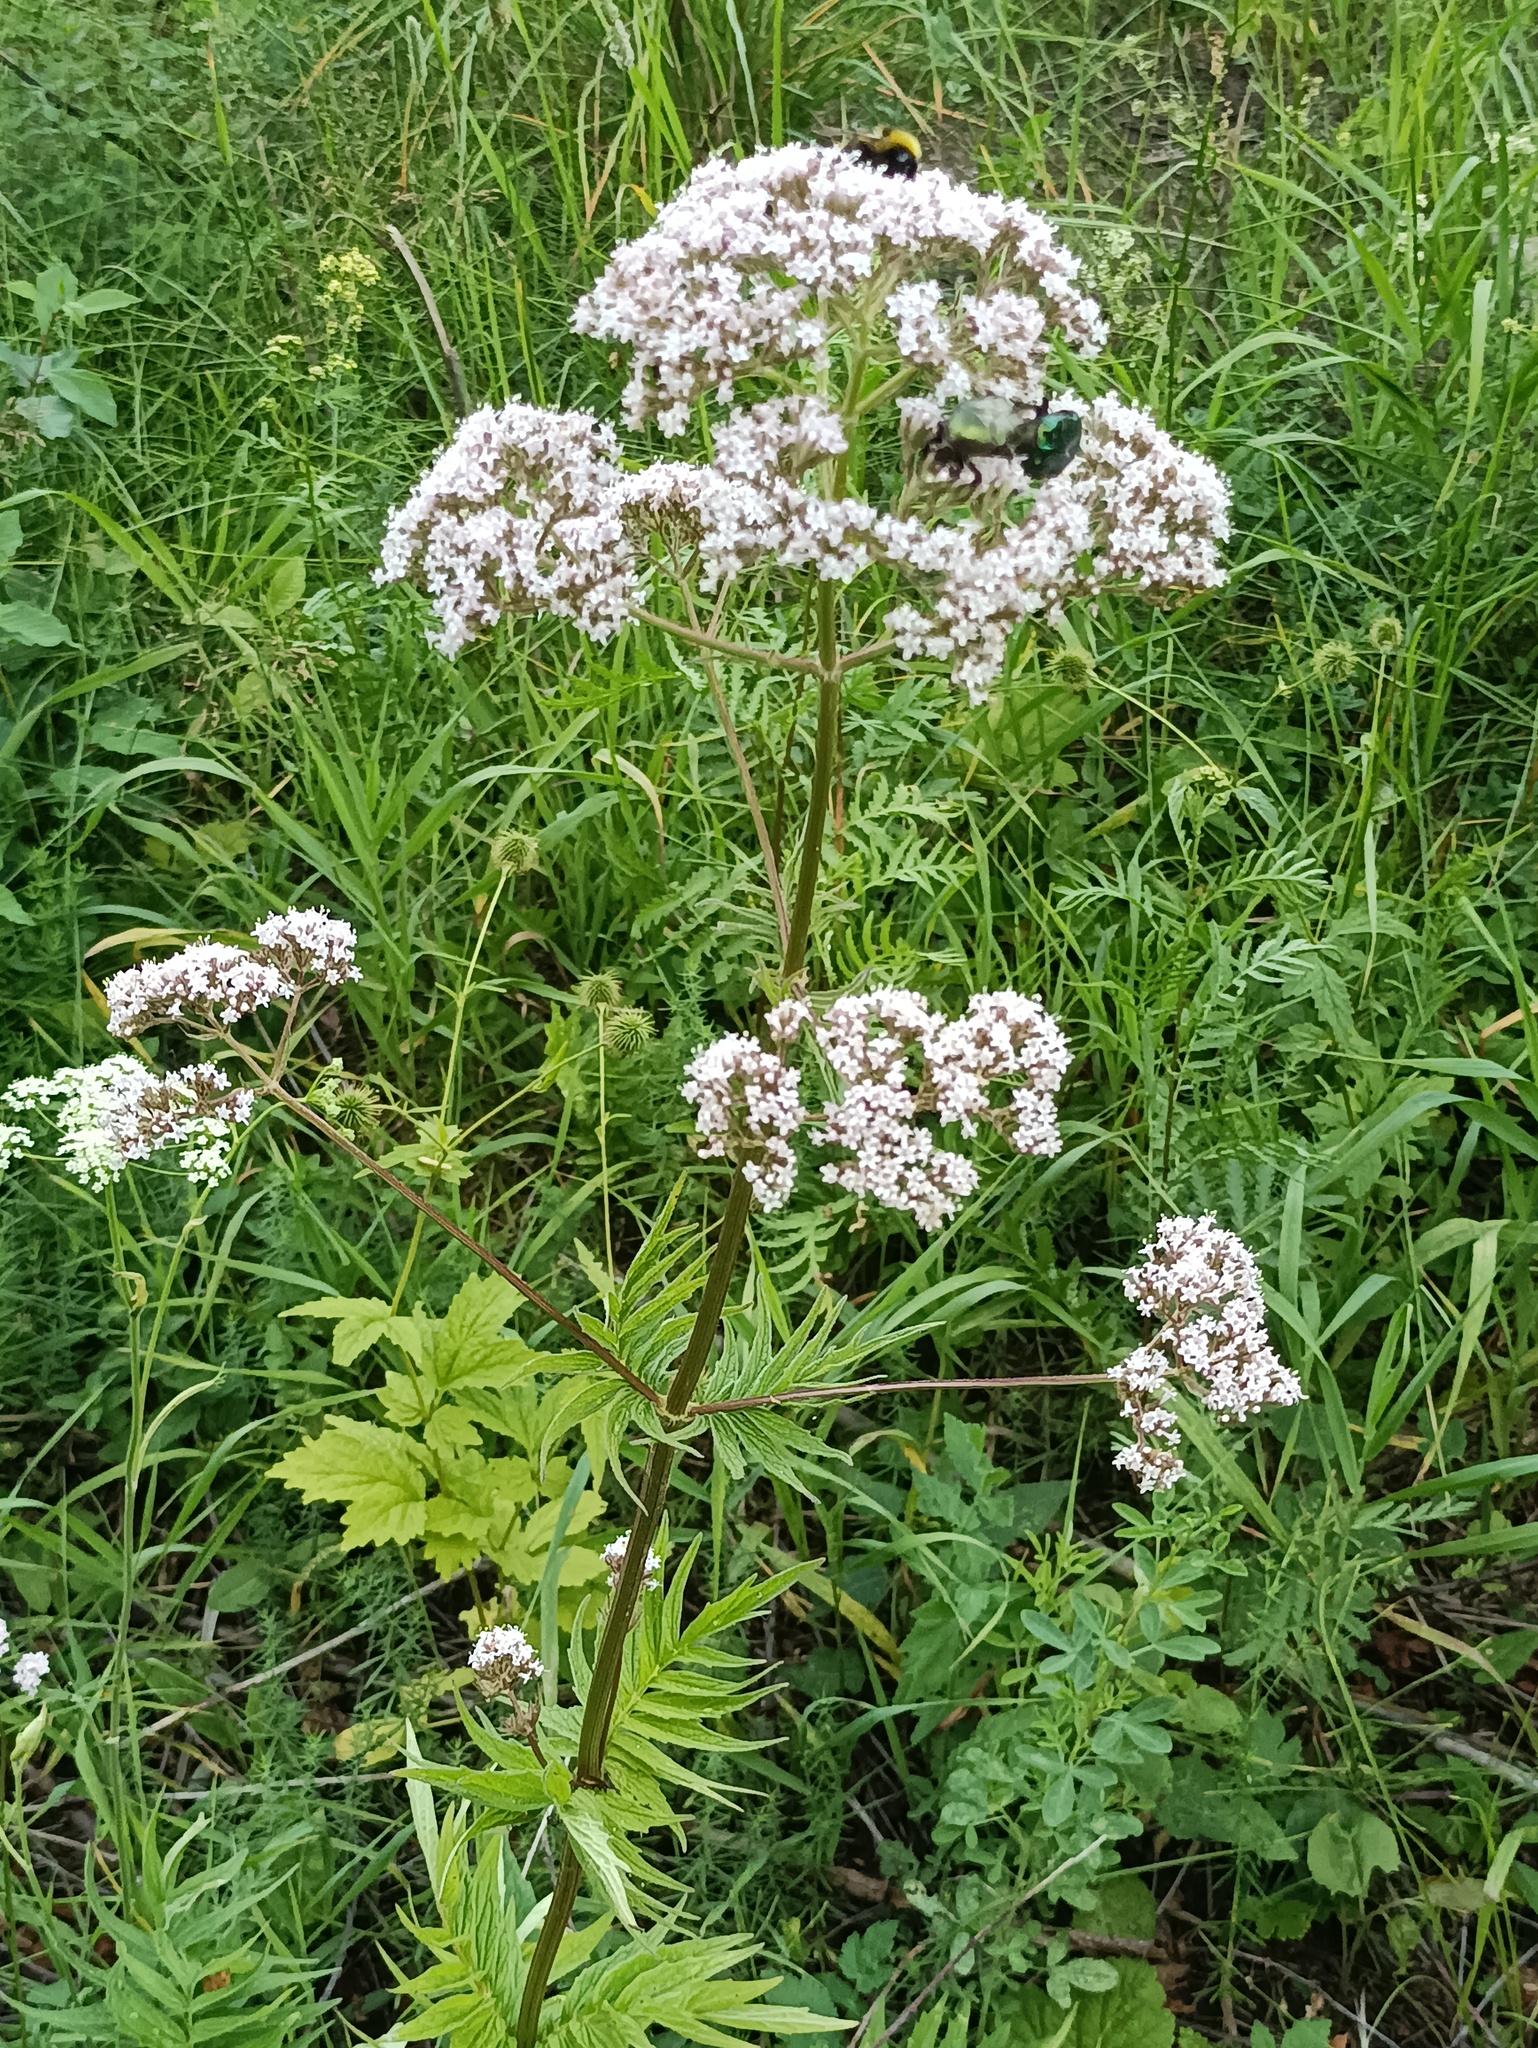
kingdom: Plantae
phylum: Tracheophyta
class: Magnoliopsida
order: Dipsacales
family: Caprifoliaceae
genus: Valeriana
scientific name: Valeriana officinalis
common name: Common valerian
